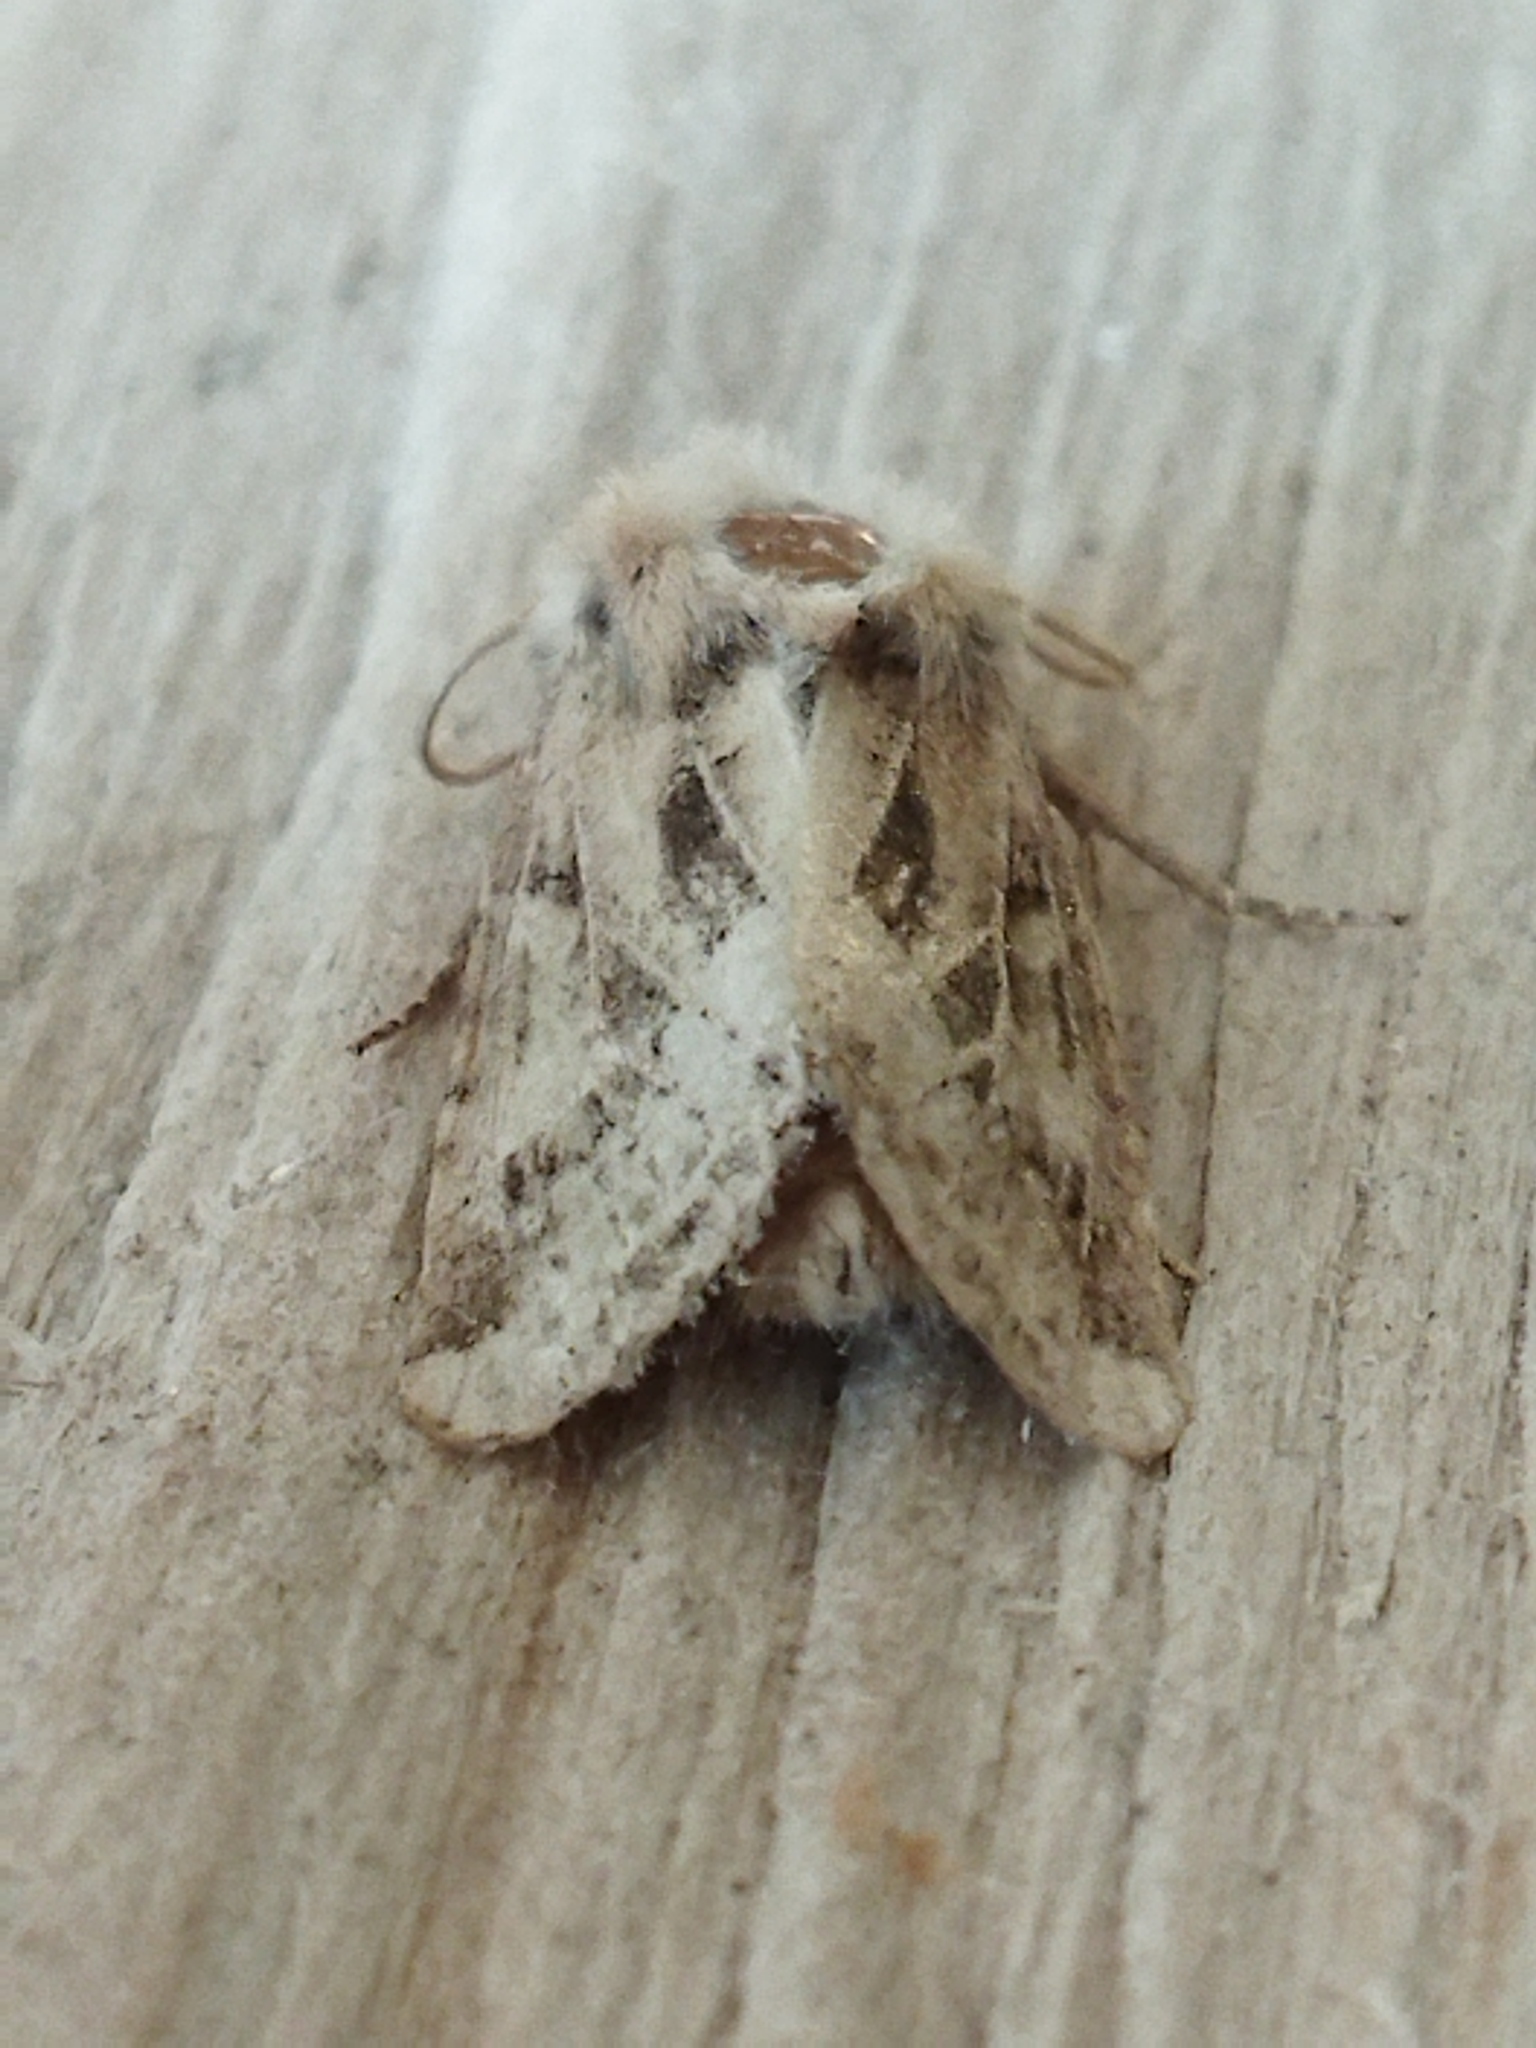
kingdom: Animalia
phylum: Arthropoda
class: Insecta
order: Lepidoptera
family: Noctuidae
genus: Luperina
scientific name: Luperina dumerilii
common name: Dumeril's rustic
